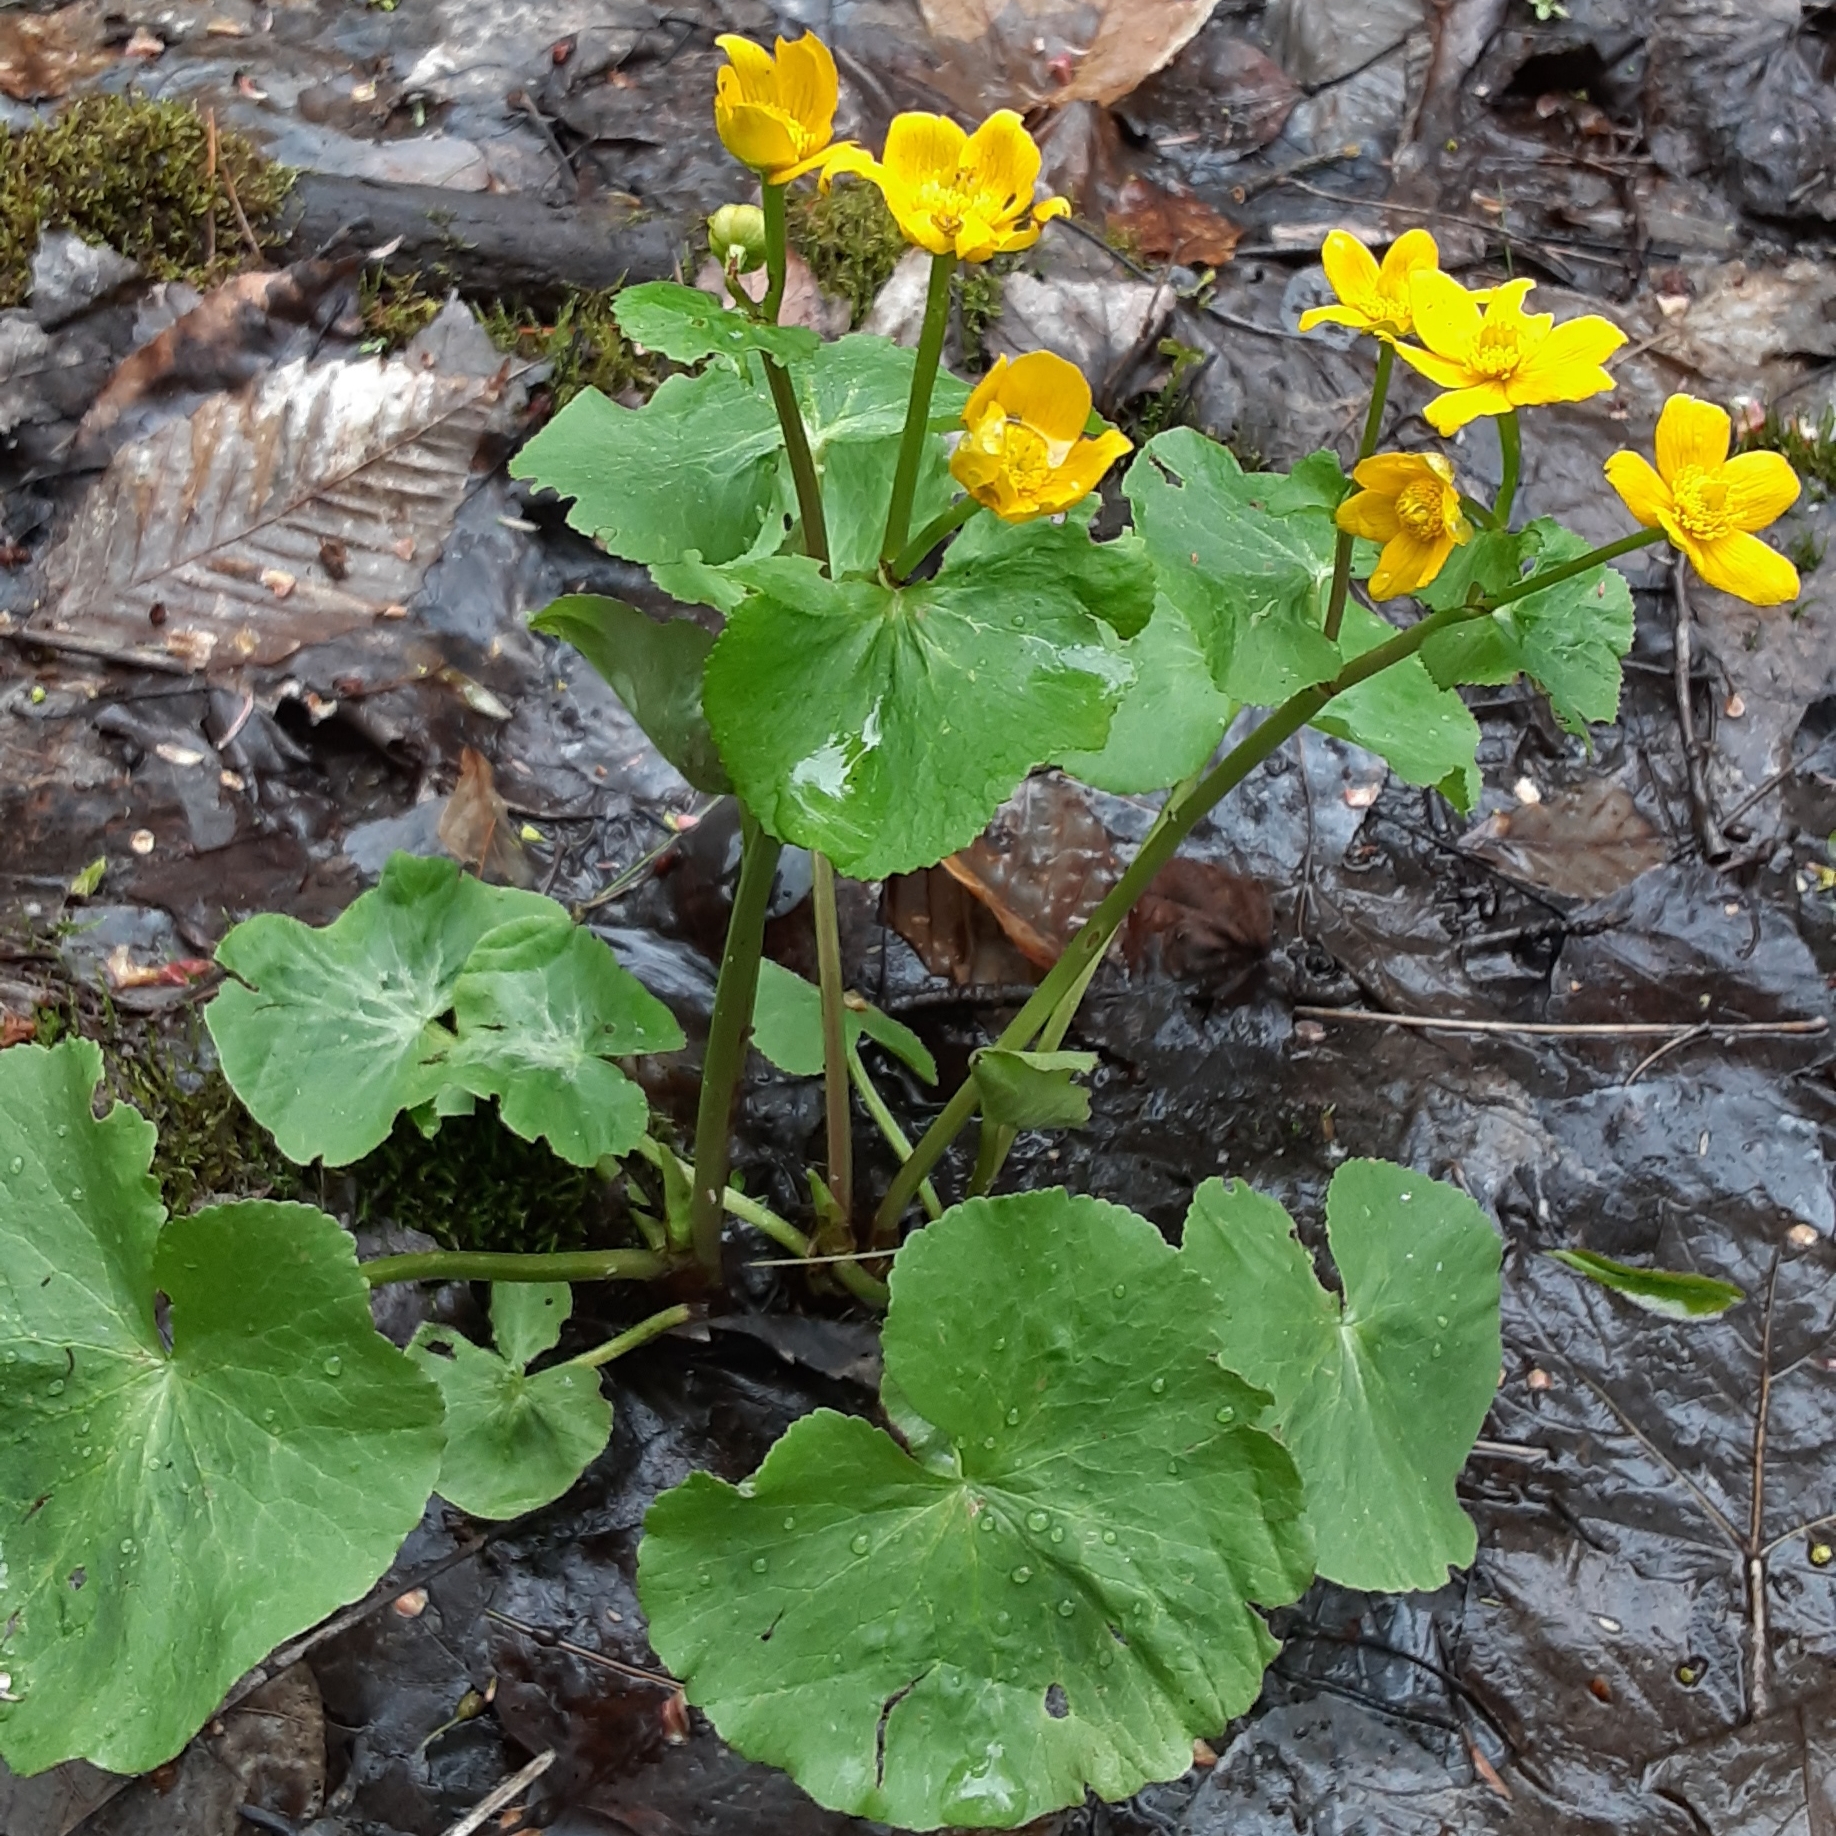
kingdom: Plantae
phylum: Tracheophyta
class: Magnoliopsida
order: Ranunculales
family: Ranunculaceae
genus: Caltha
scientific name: Caltha palustris
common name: Marsh marigold
